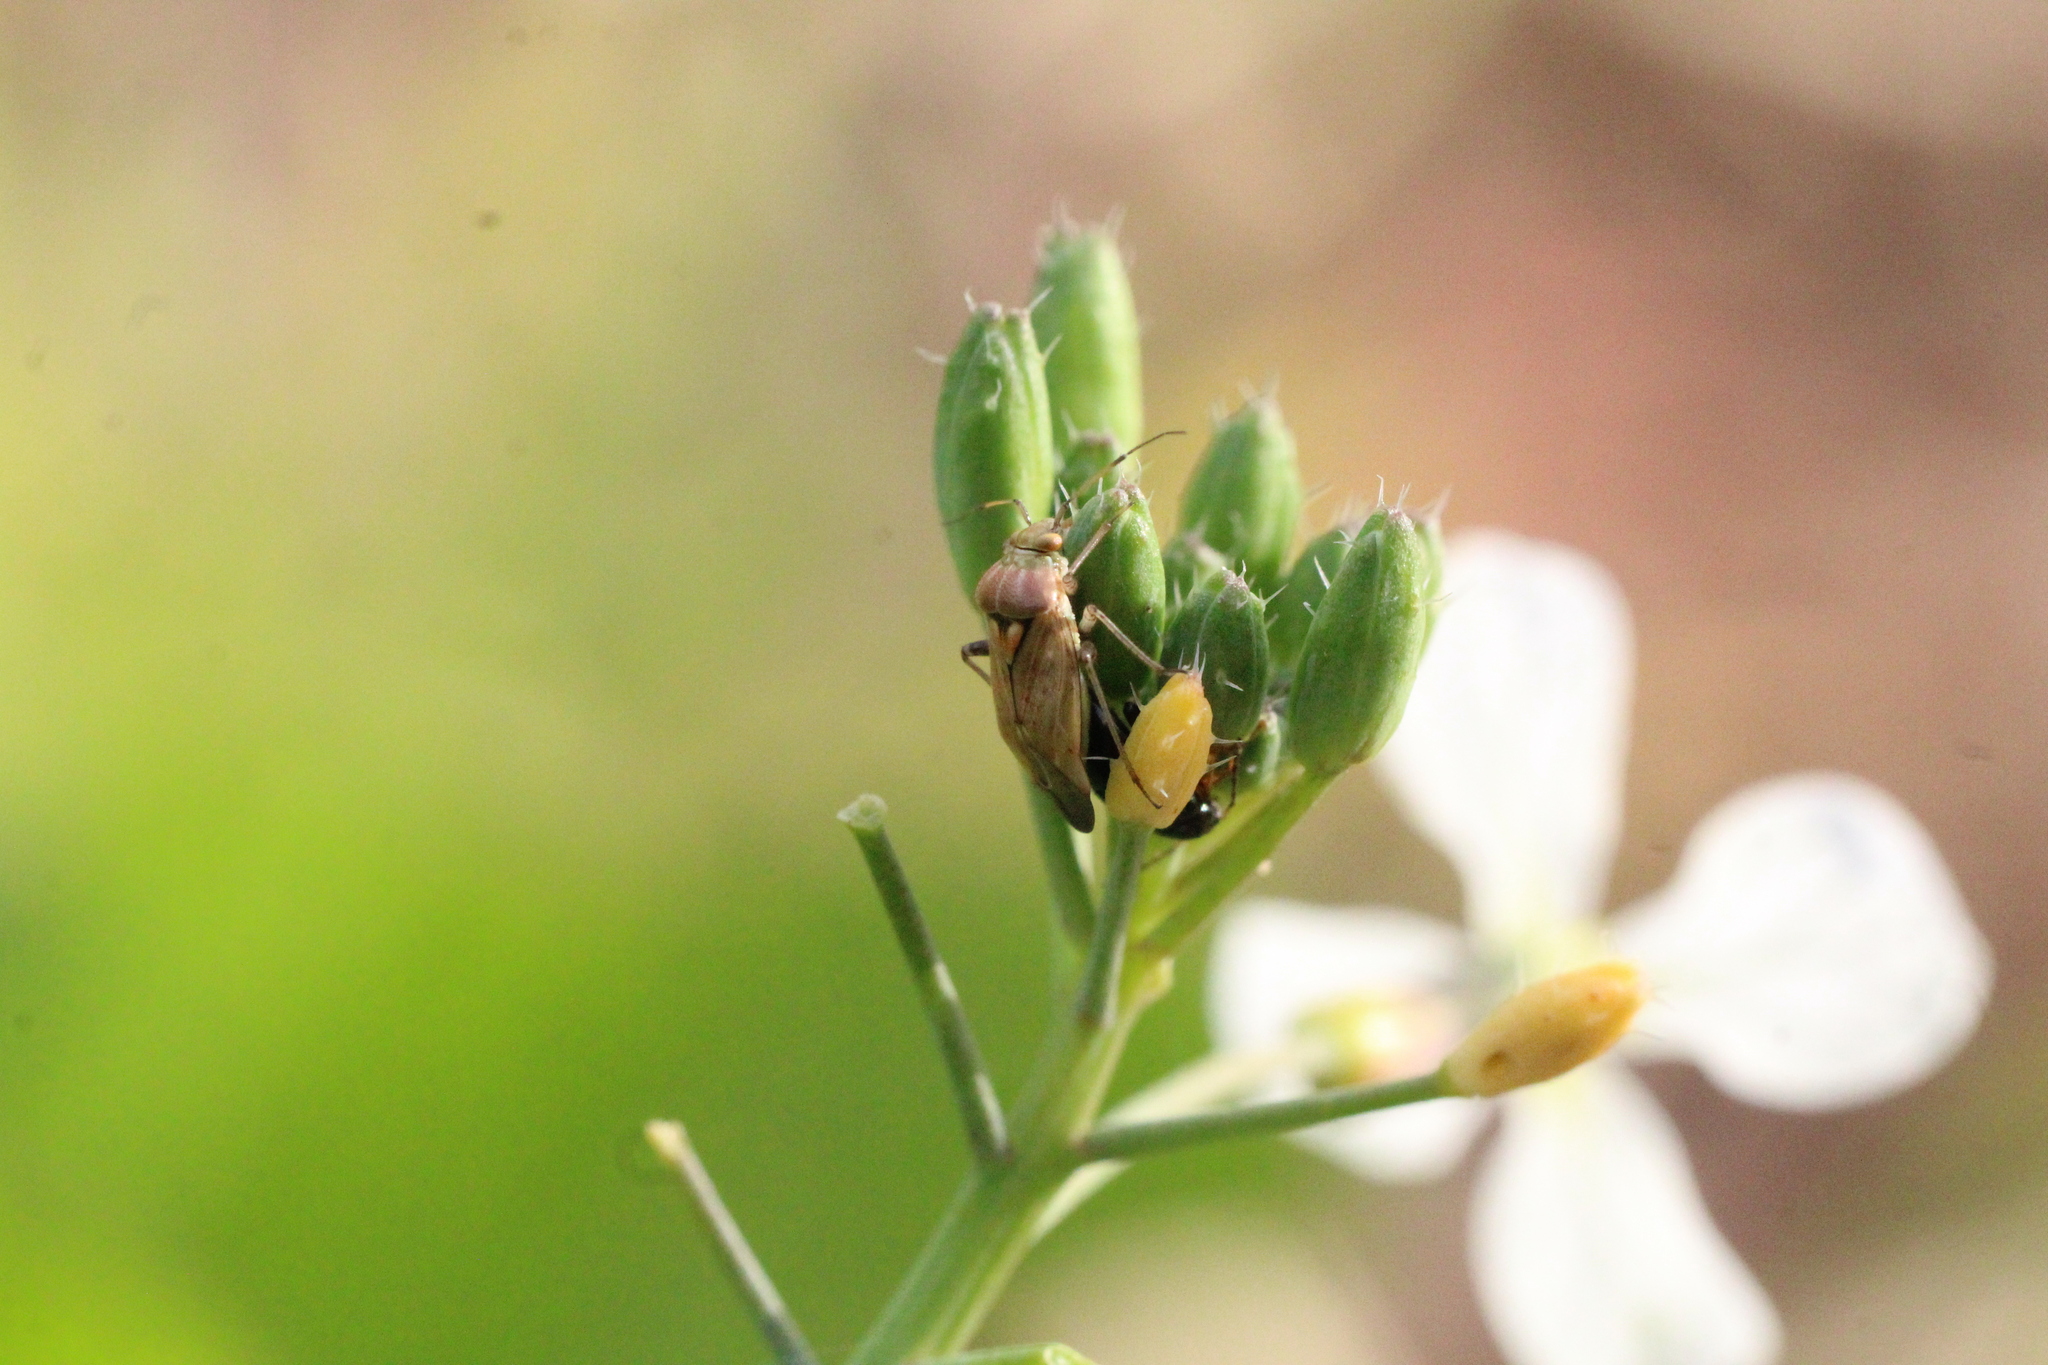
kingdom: Animalia
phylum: Arthropoda
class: Insecta
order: Hemiptera
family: Miridae
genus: Lygus
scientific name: Lygus rugulipennis
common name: European tarnished plant bug
